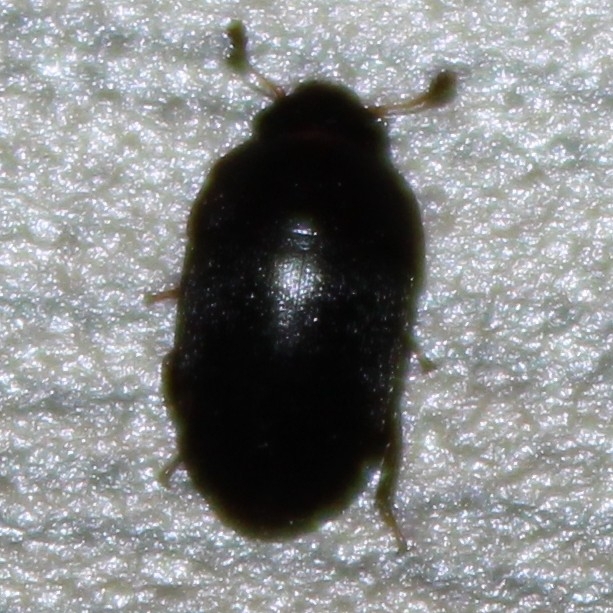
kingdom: Animalia
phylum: Arthropoda
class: Insecta
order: Coleoptera
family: Nitidulidae
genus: Cryptarcha
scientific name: Cryptarcha ampla
